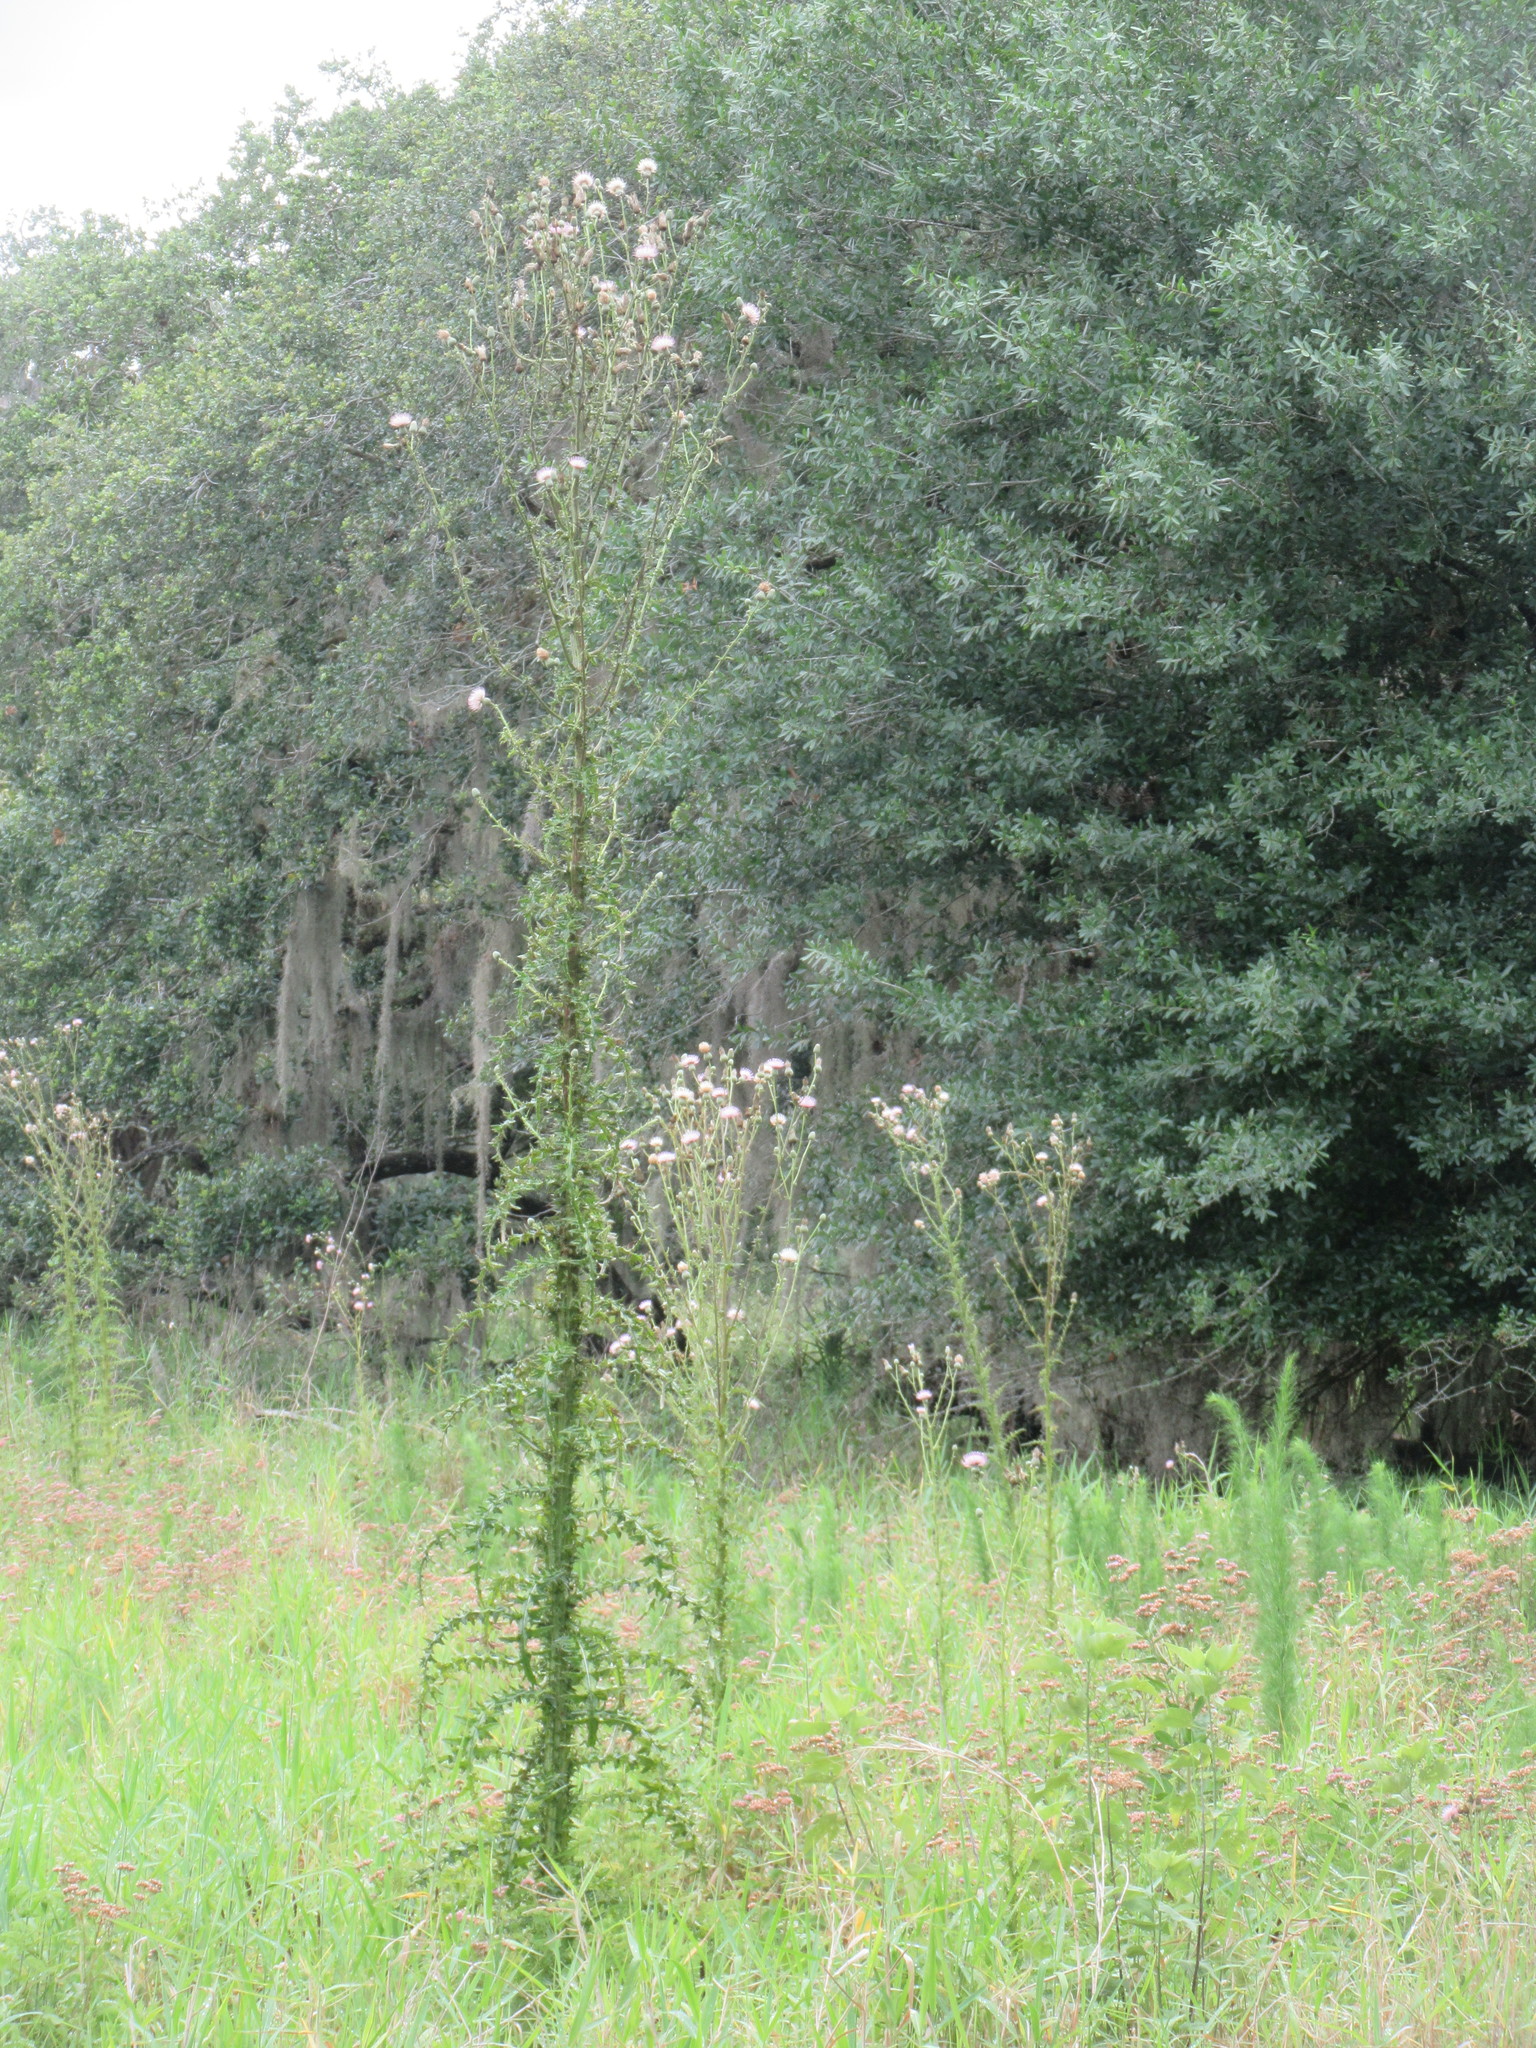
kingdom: Plantae
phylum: Tracheophyta
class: Magnoliopsida
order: Asterales
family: Asteraceae
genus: Cirsium
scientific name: Cirsium nuttalii
